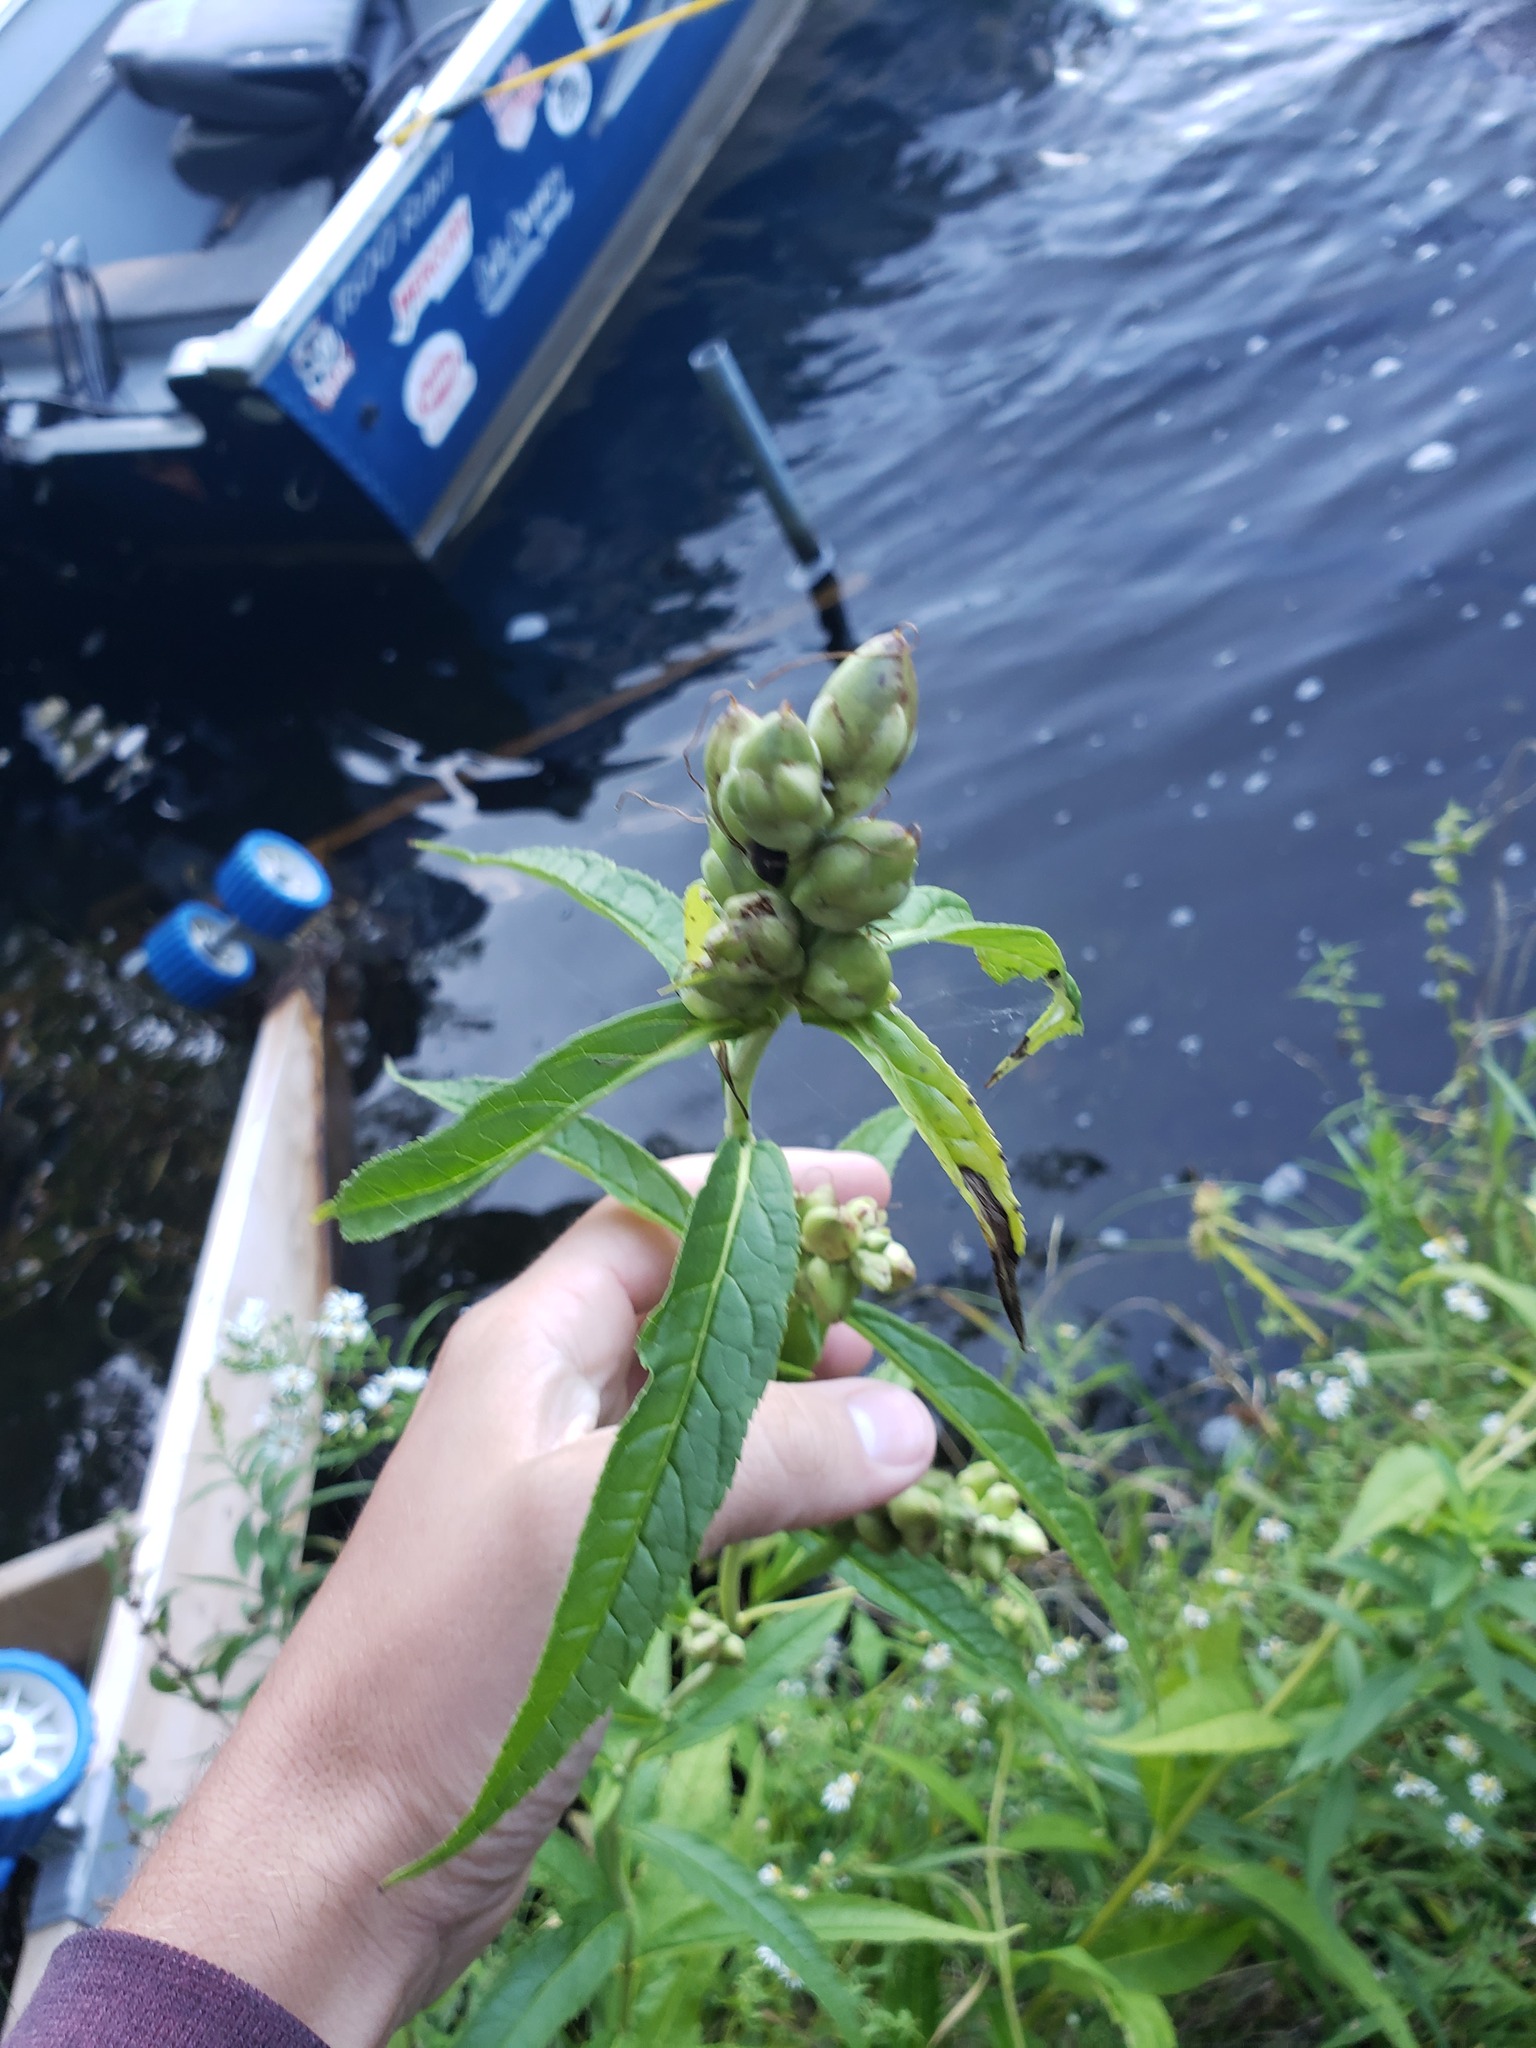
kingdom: Plantae
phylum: Tracheophyta
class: Magnoliopsida
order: Lamiales
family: Plantaginaceae
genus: Chelone
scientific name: Chelone glabra
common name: Snakehead
